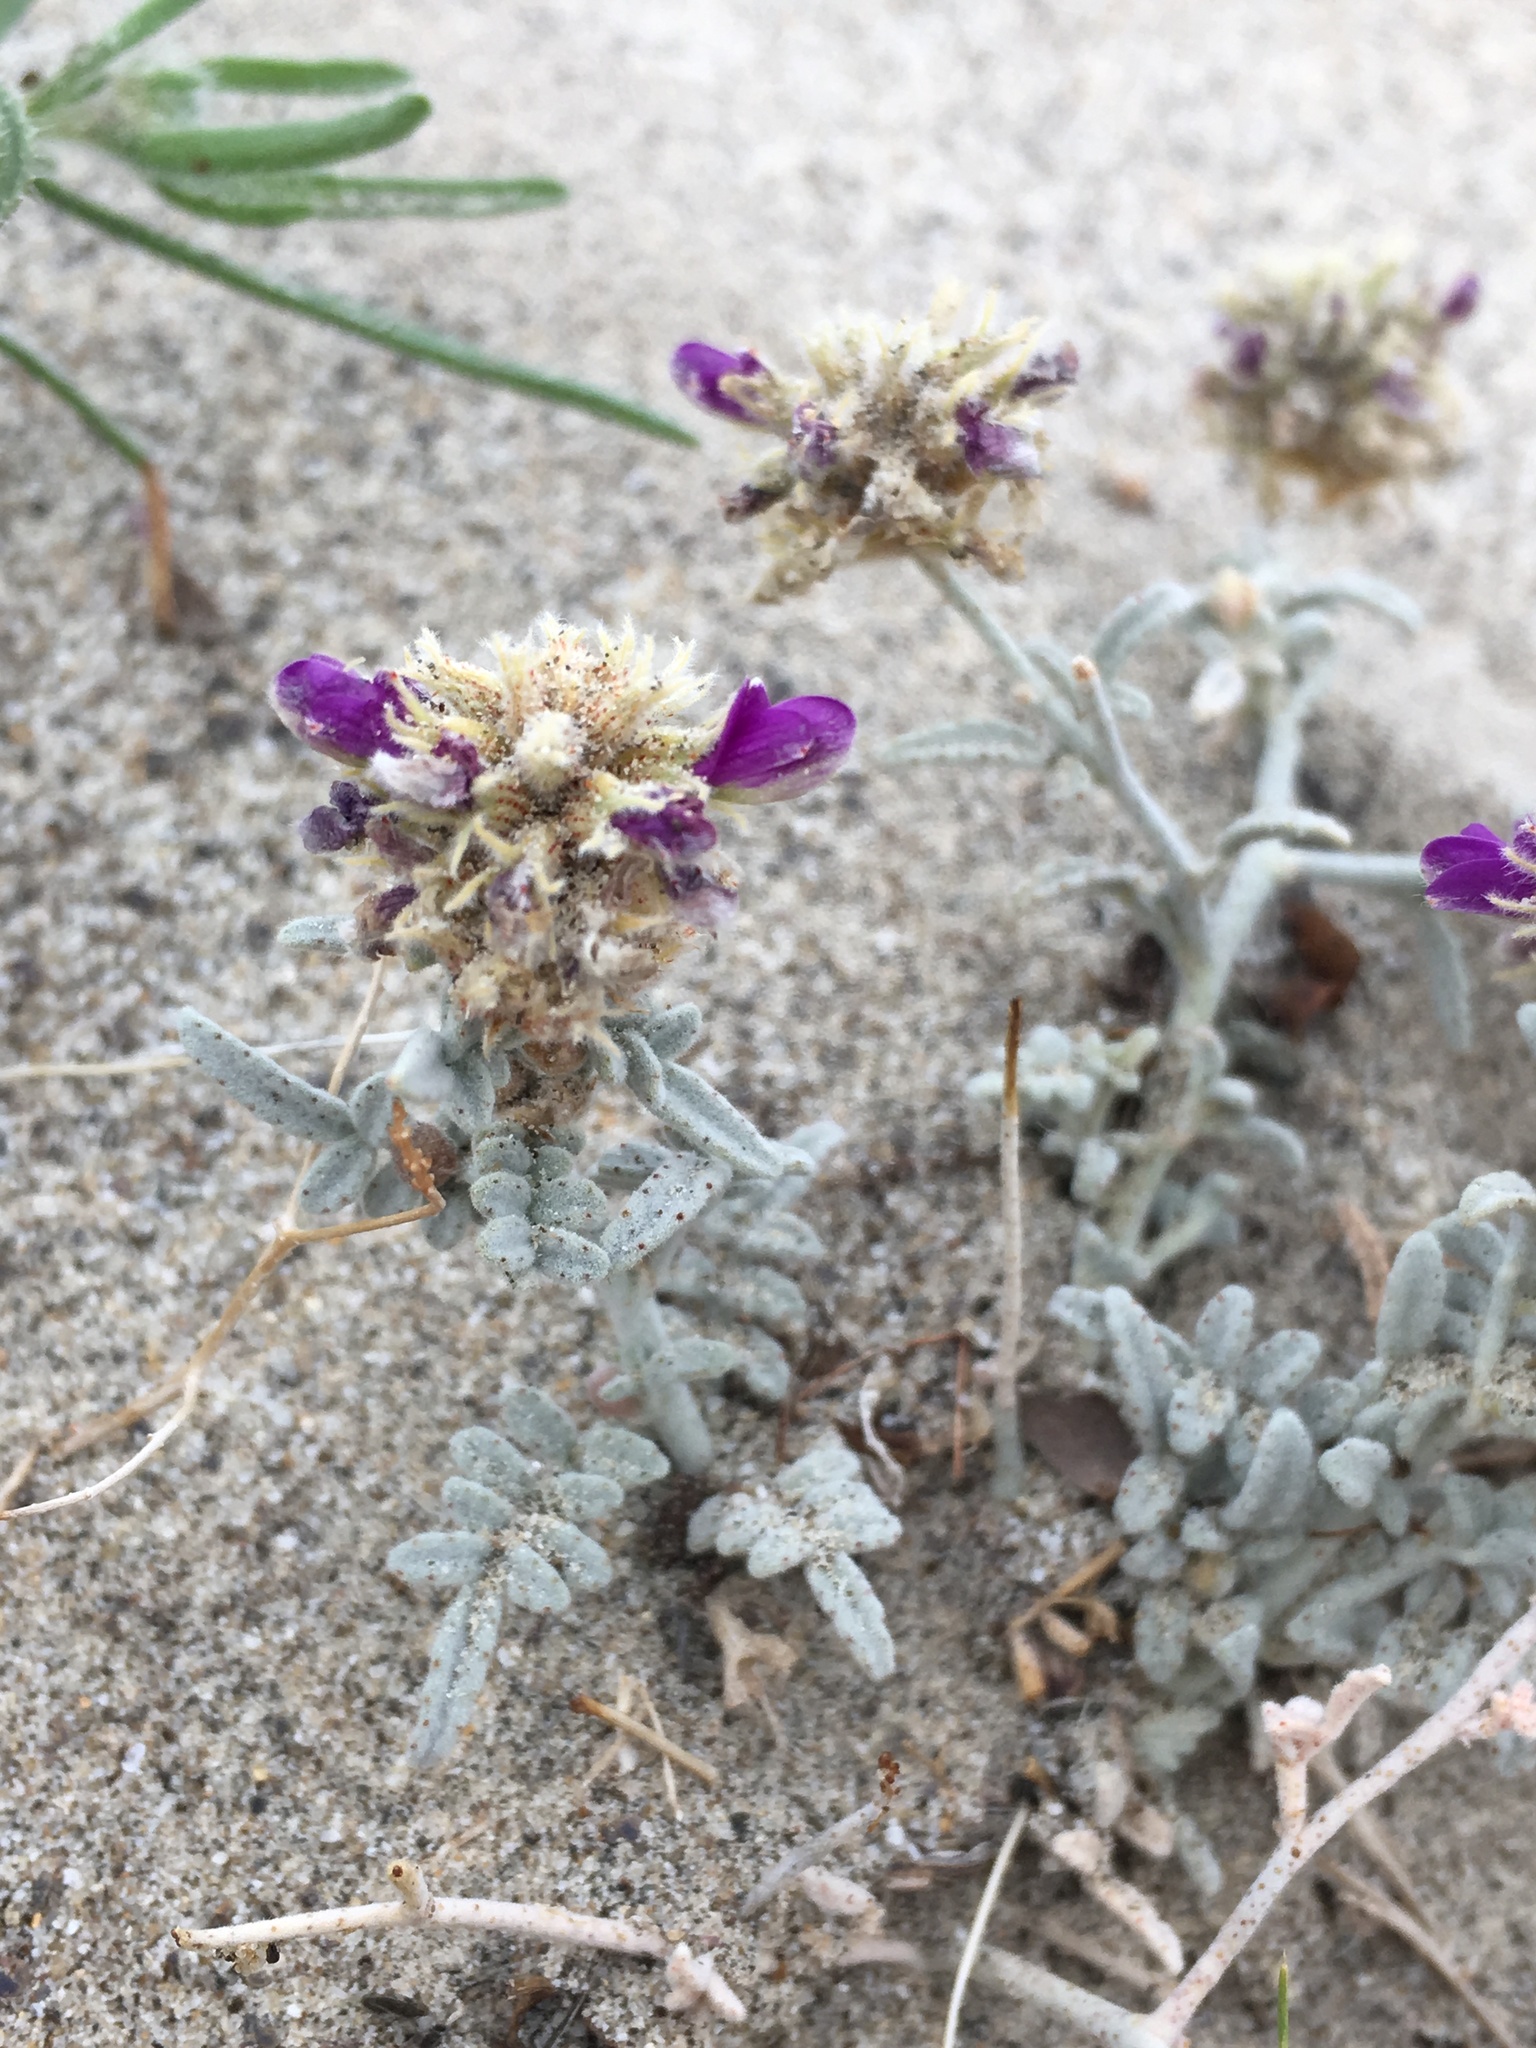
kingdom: Plantae
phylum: Tracheophyta
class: Magnoliopsida
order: Fabales
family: Fabaceae
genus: Psorothamnus
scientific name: Psorothamnus emoryi
